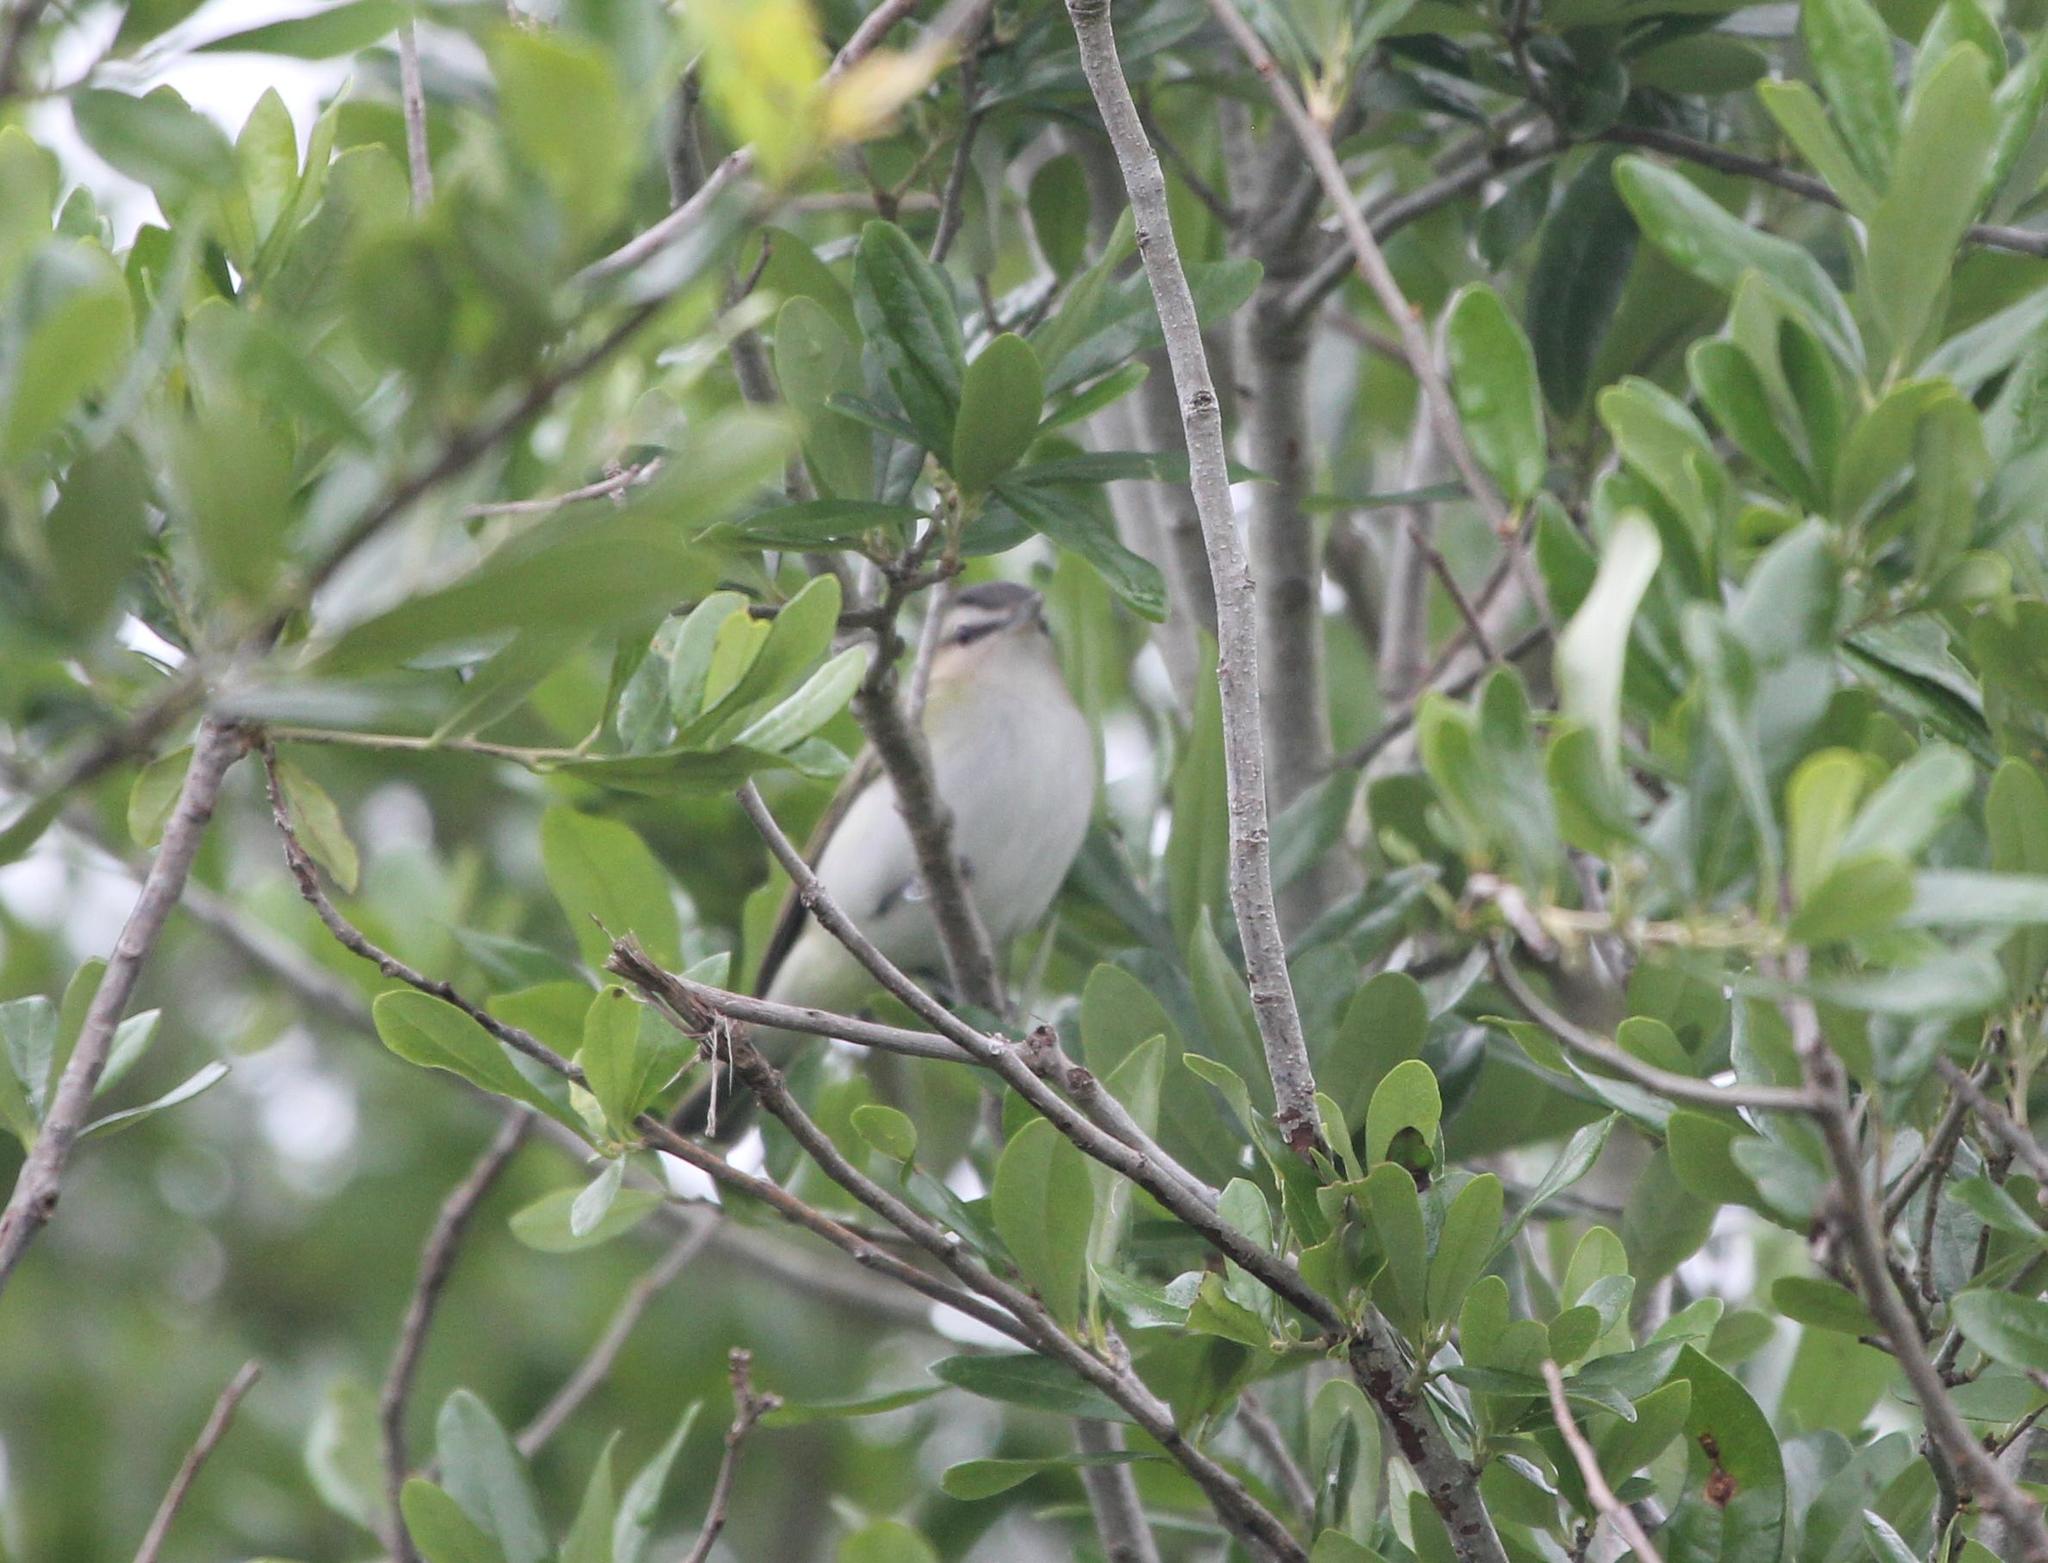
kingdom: Animalia
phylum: Chordata
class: Aves
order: Passeriformes
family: Vireonidae
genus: Vireo
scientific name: Vireo olivaceus
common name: Red-eyed vireo
